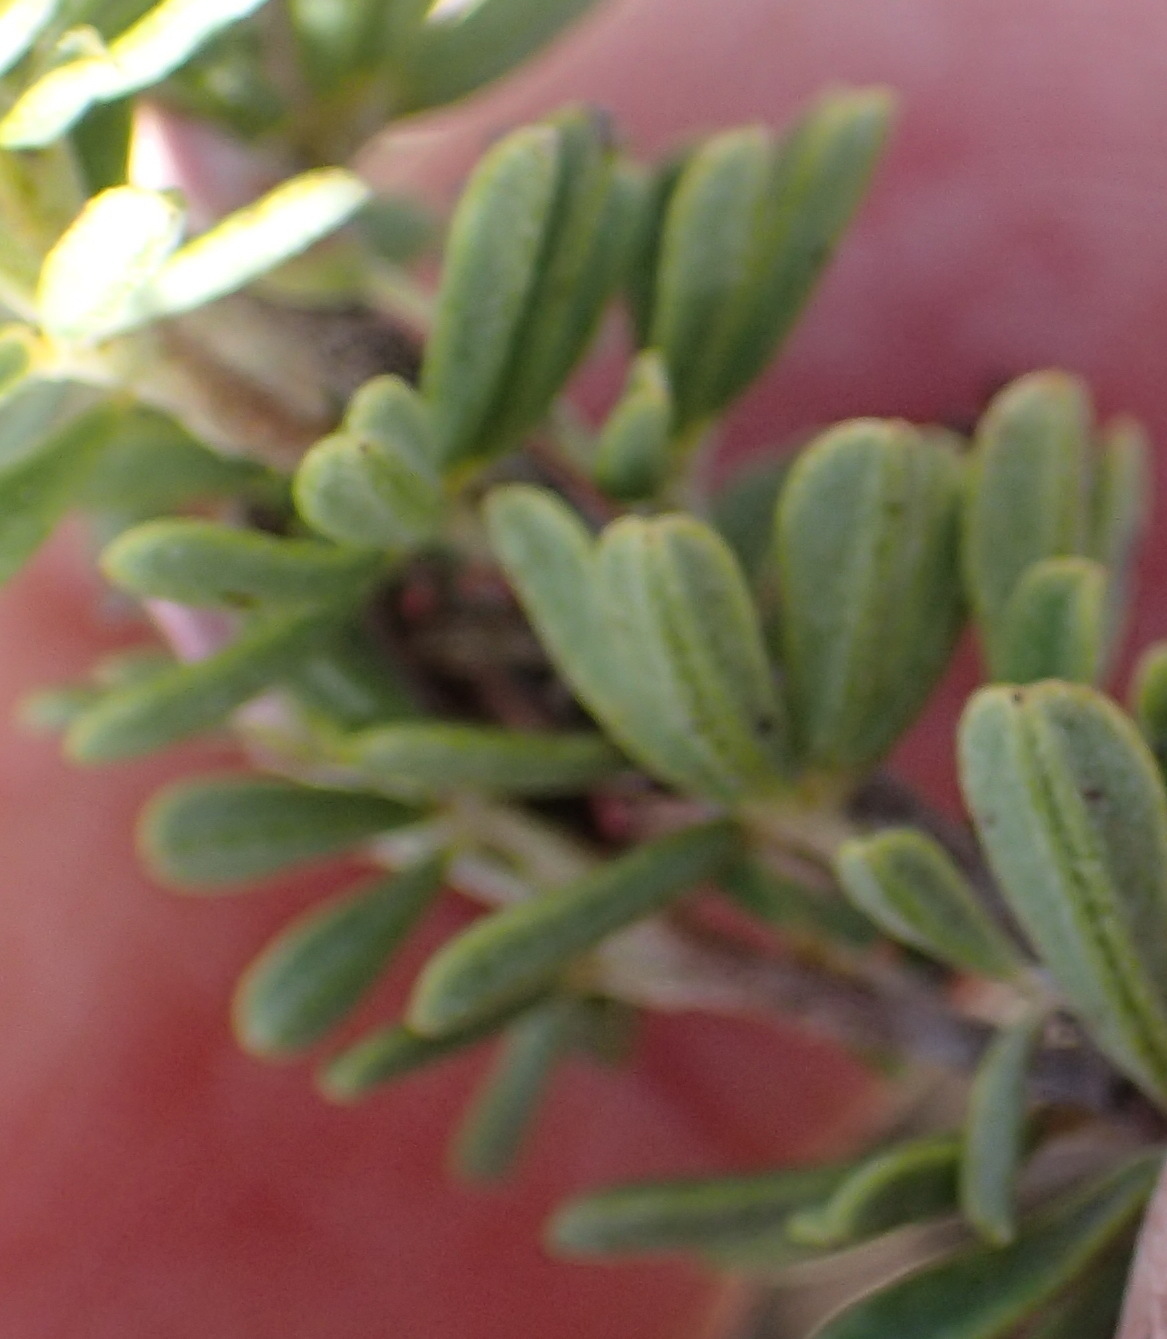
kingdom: Plantae
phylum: Tracheophyta
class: Magnoliopsida
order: Fabales
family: Fabaceae
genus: Indigofera
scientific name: Indigofera flabellata
